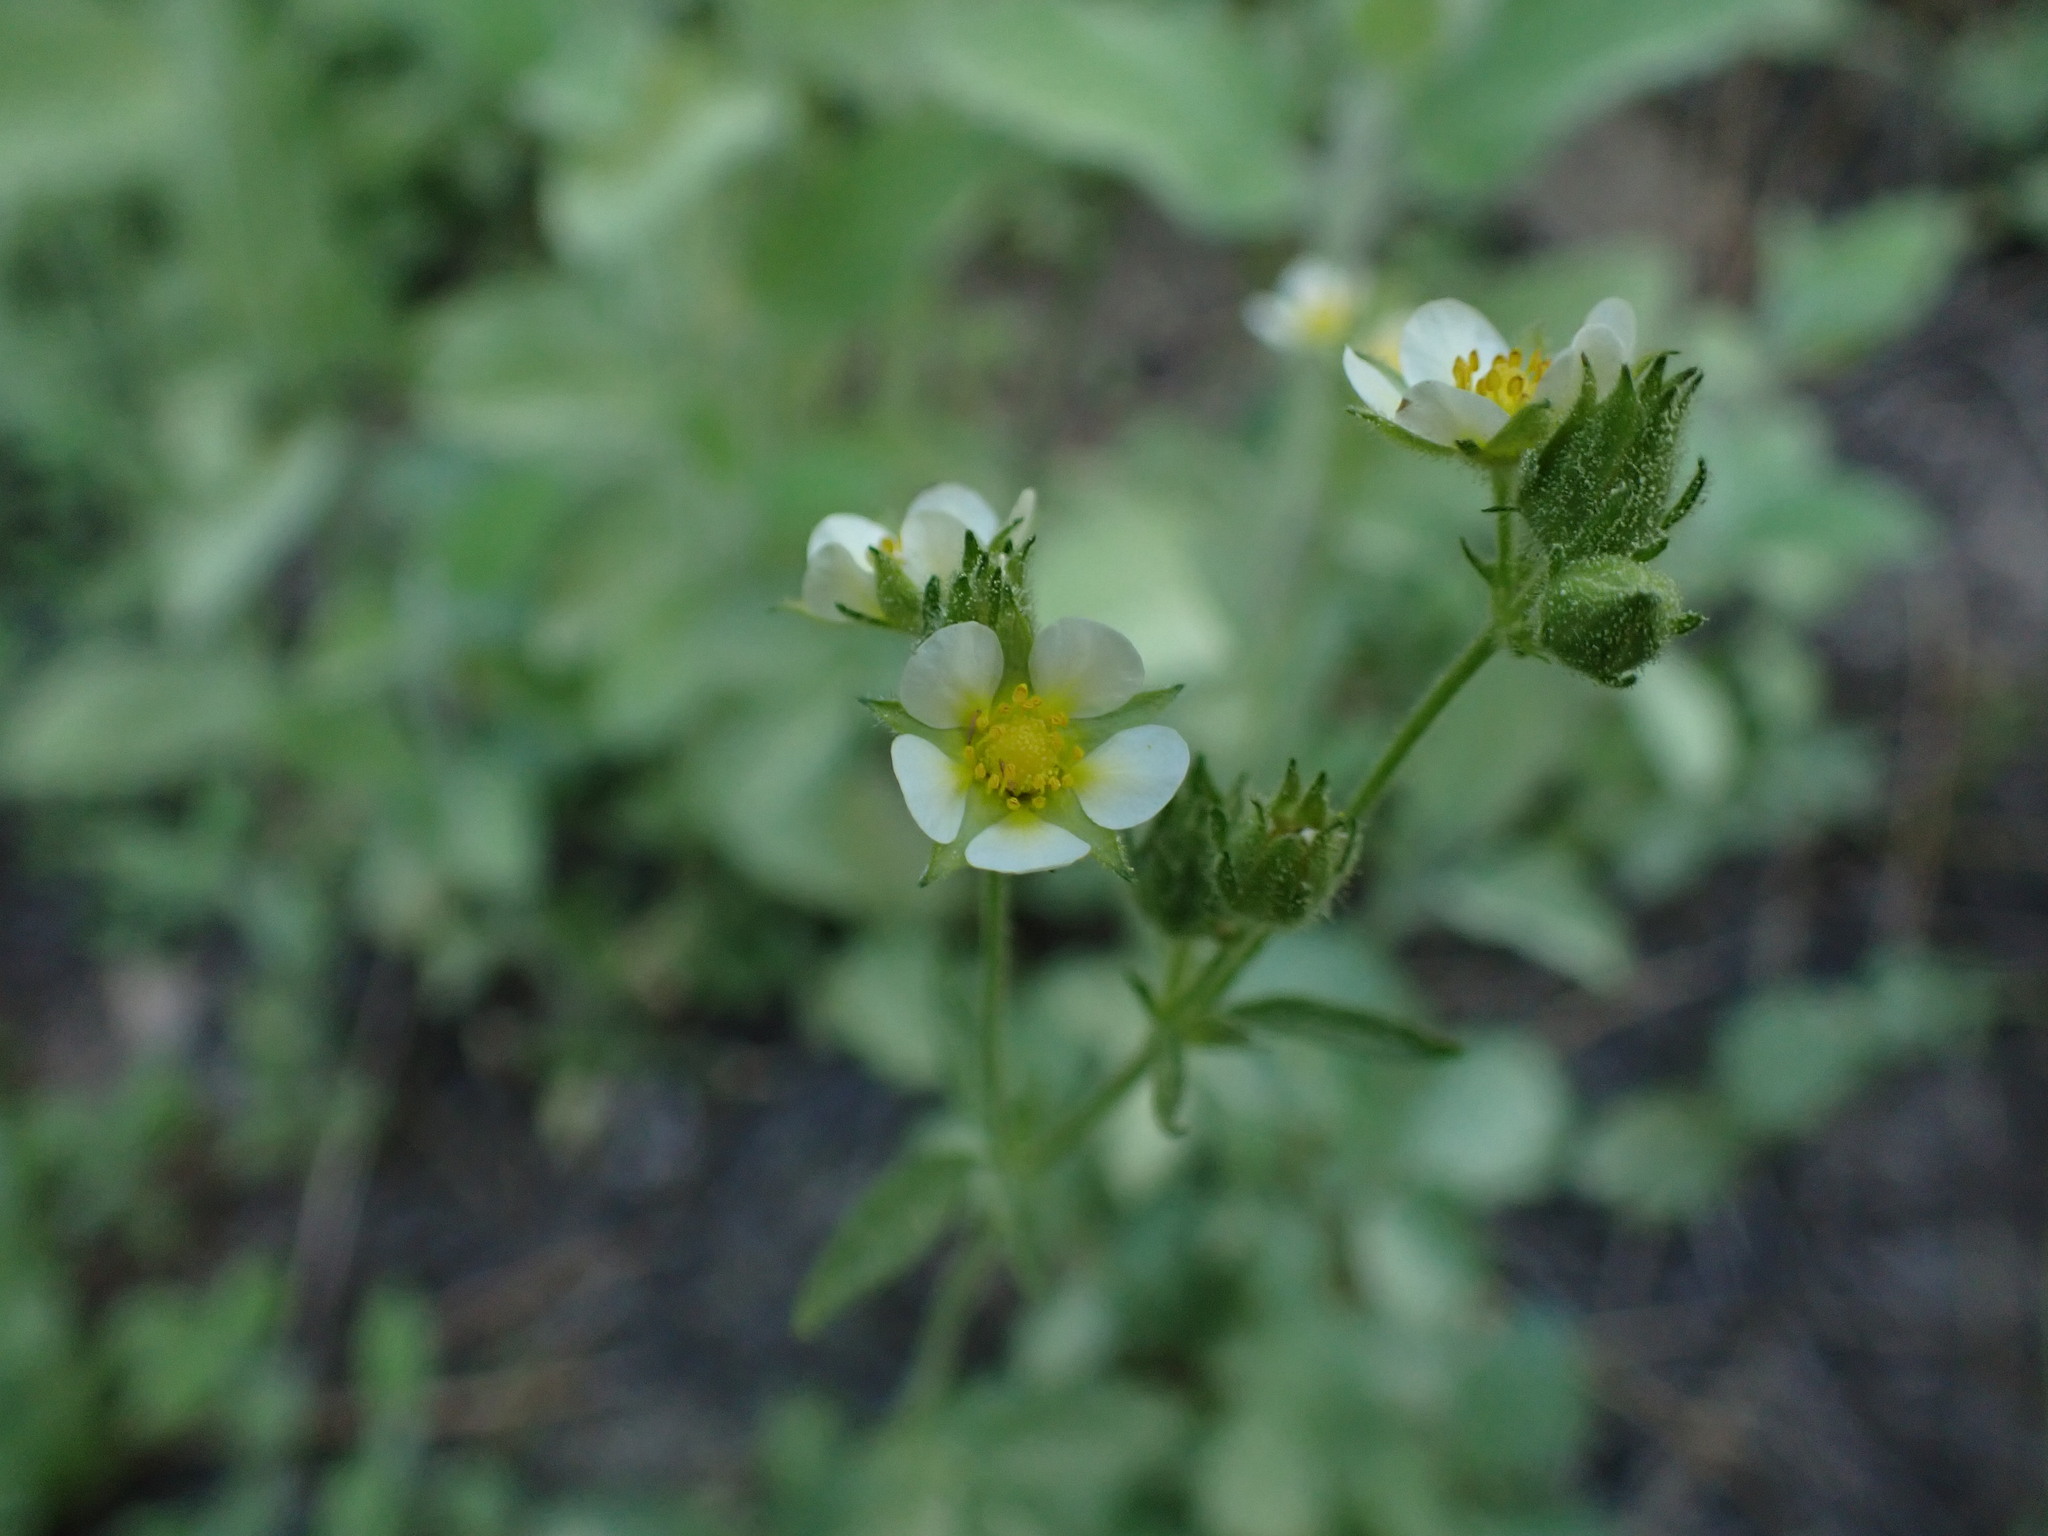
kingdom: Plantae
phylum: Tracheophyta
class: Magnoliopsida
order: Rosales
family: Rosaceae
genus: Drymocallis
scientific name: Drymocallis glandulosa
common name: Sticky cinquefoil
